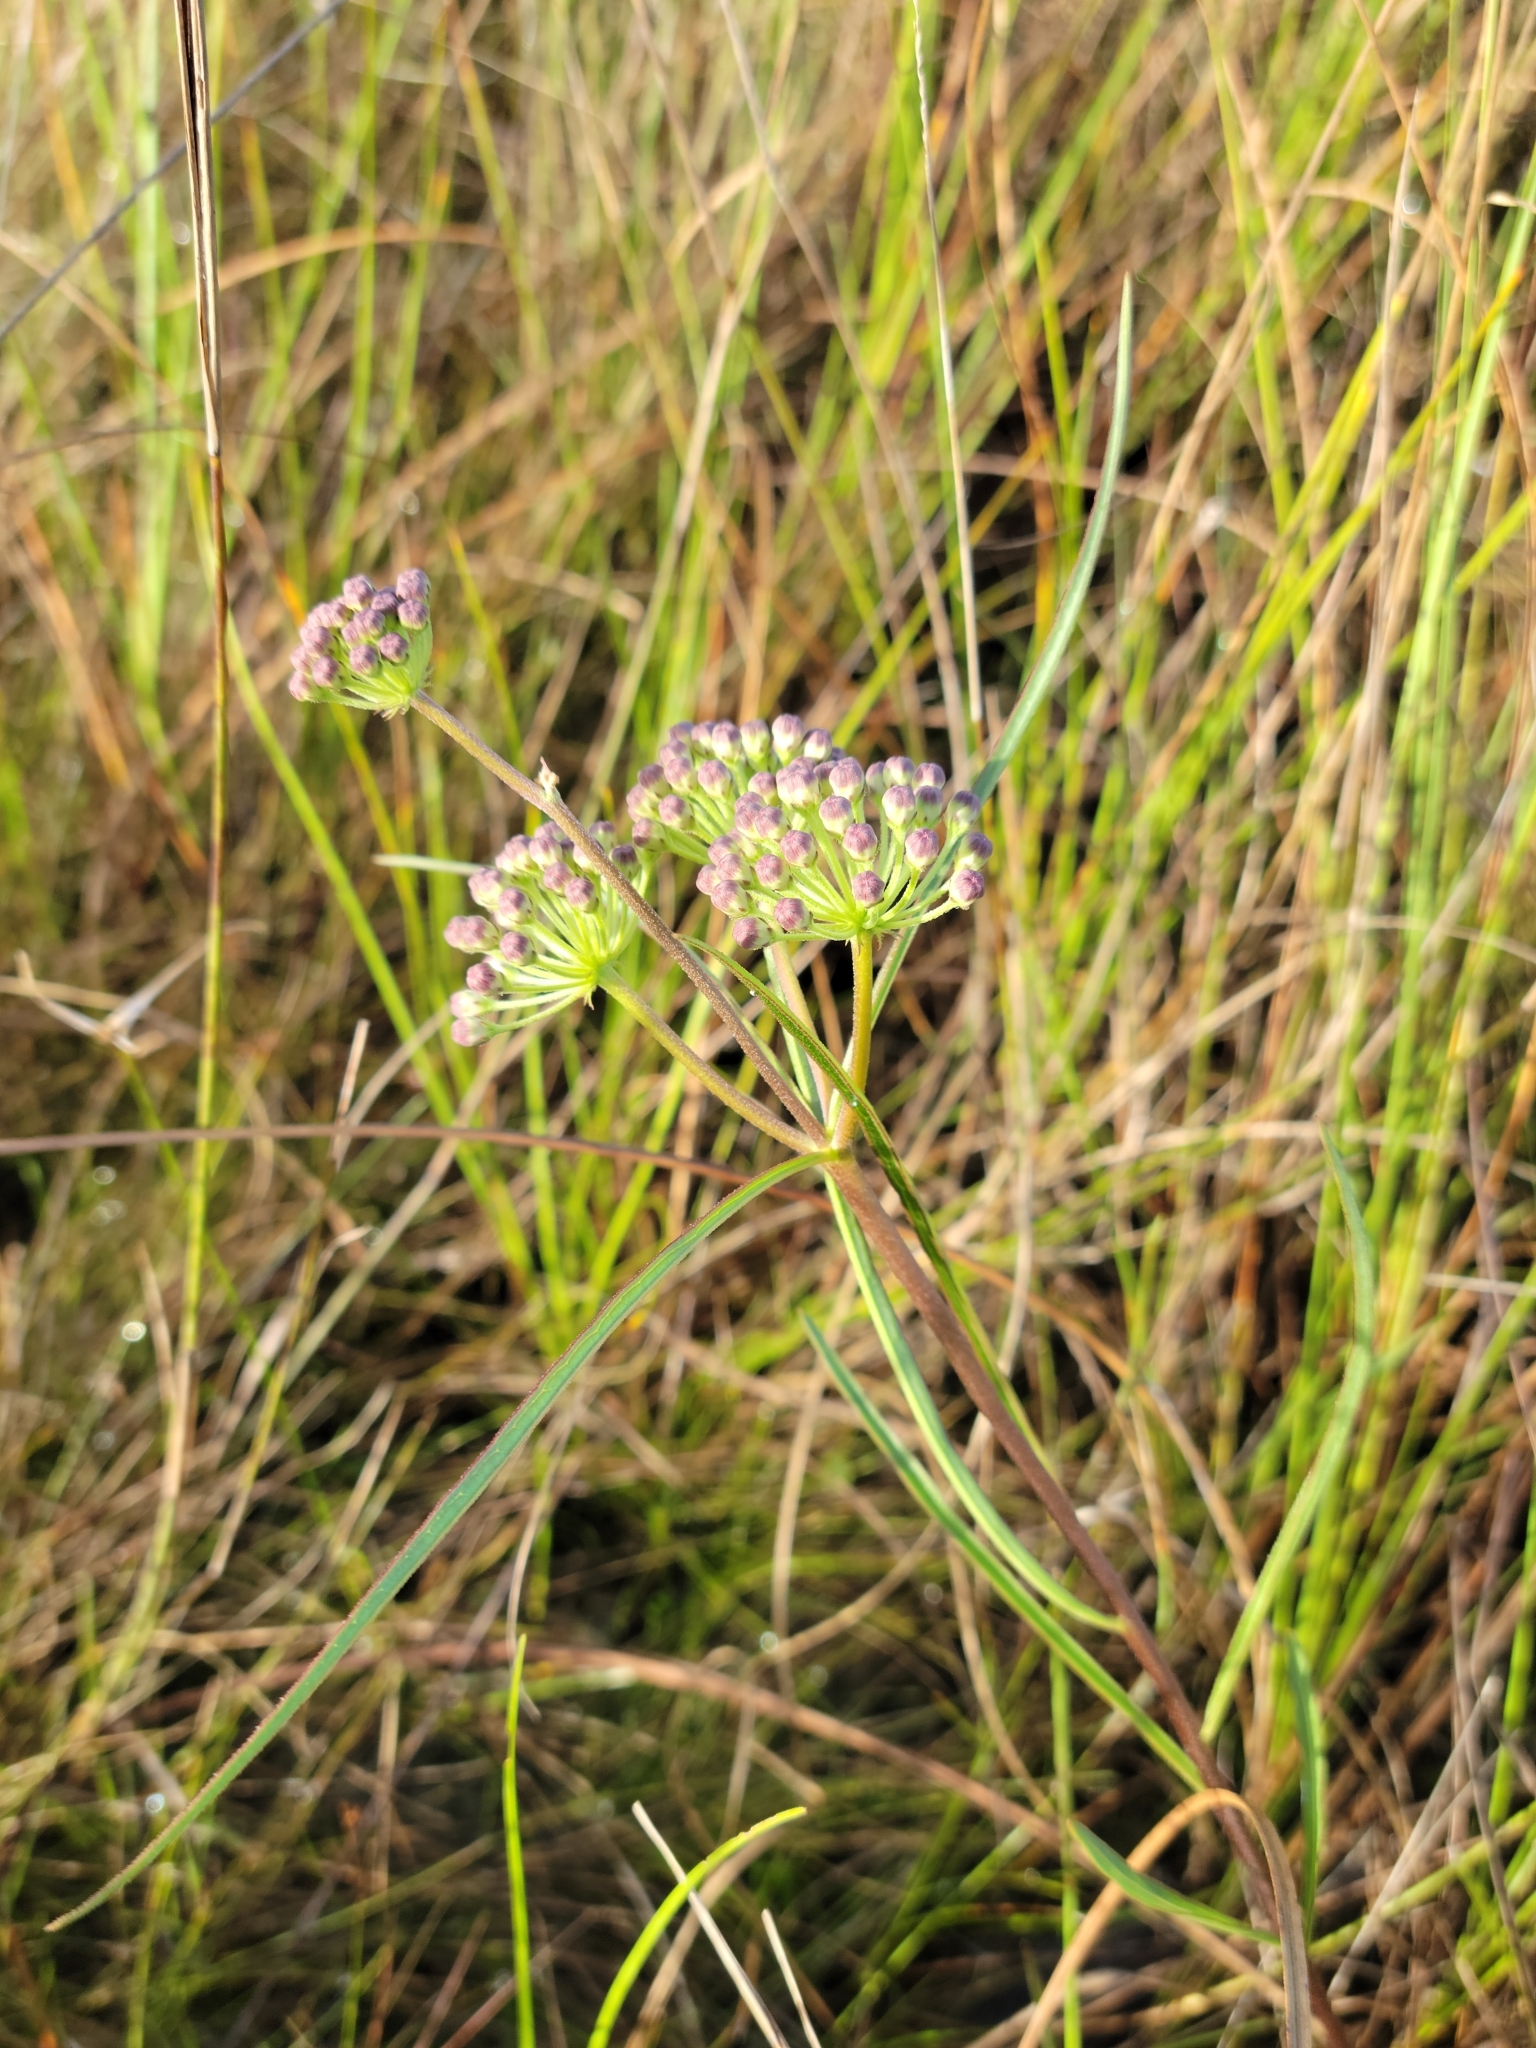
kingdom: Plantae
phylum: Tracheophyta
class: Magnoliopsida
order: Gentianales
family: Apocynaceae
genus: Asclepias
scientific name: Asclepias longifolia
